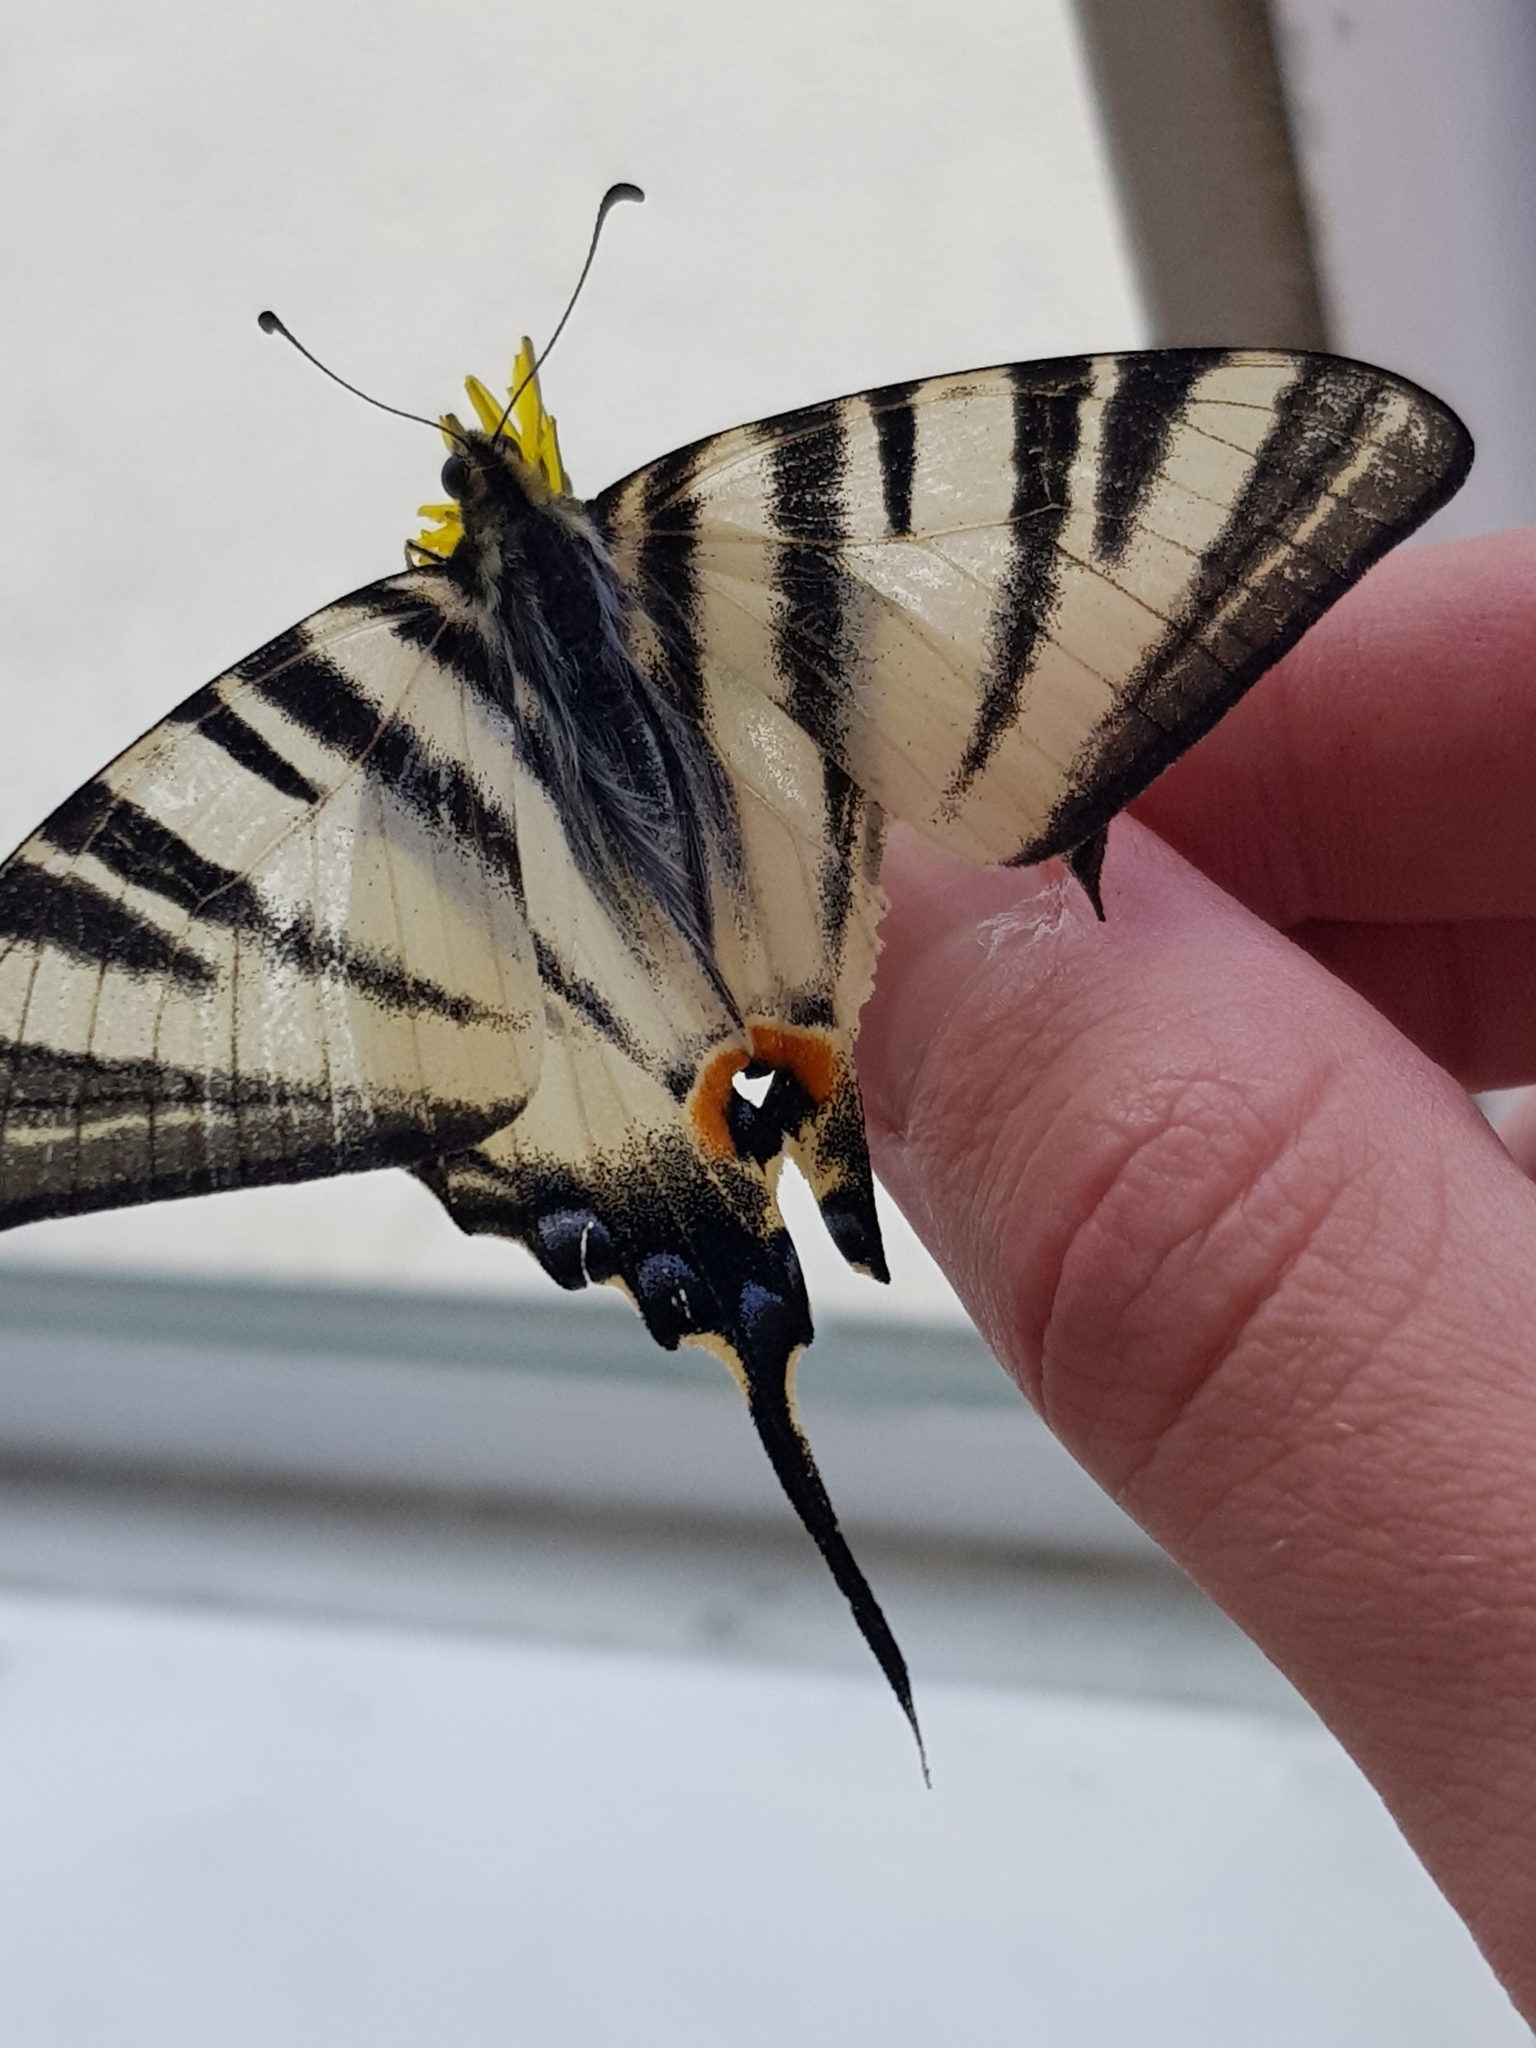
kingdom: Animalia
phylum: Arthropoda
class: Insecta
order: Lepidoptera
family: Papilionidae
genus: Iphiclides
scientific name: Iphiclides podalirius
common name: Scarce swallowtail
